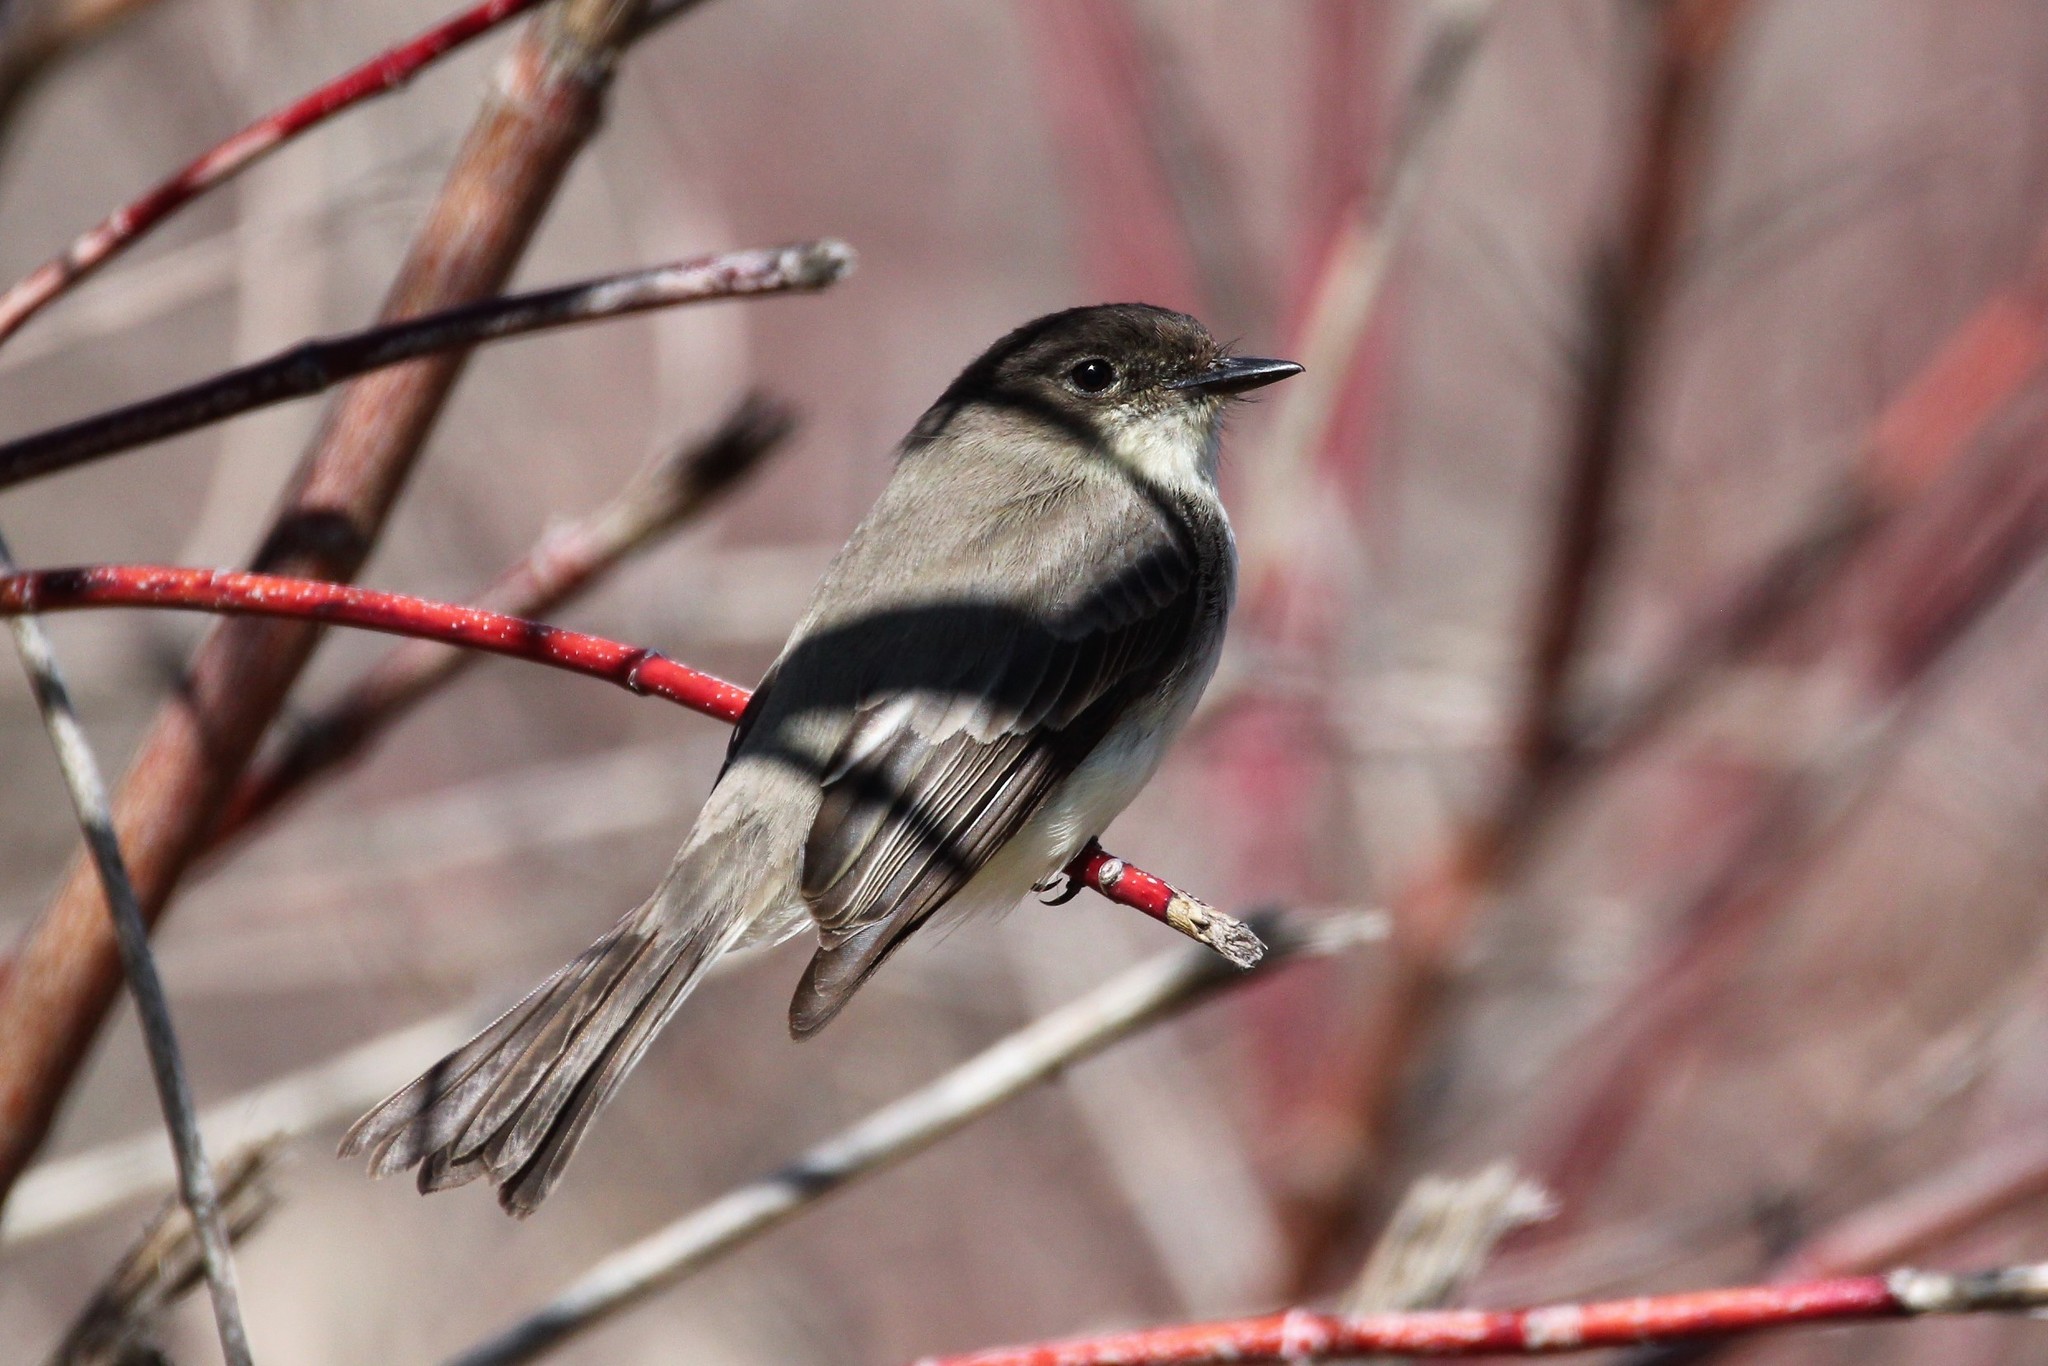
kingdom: Animalia
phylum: Chordata
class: Aves
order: Passeriformes
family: Tyrannidae
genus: Sayornis
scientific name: Sayornis phoebe
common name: Eastern phoebe
